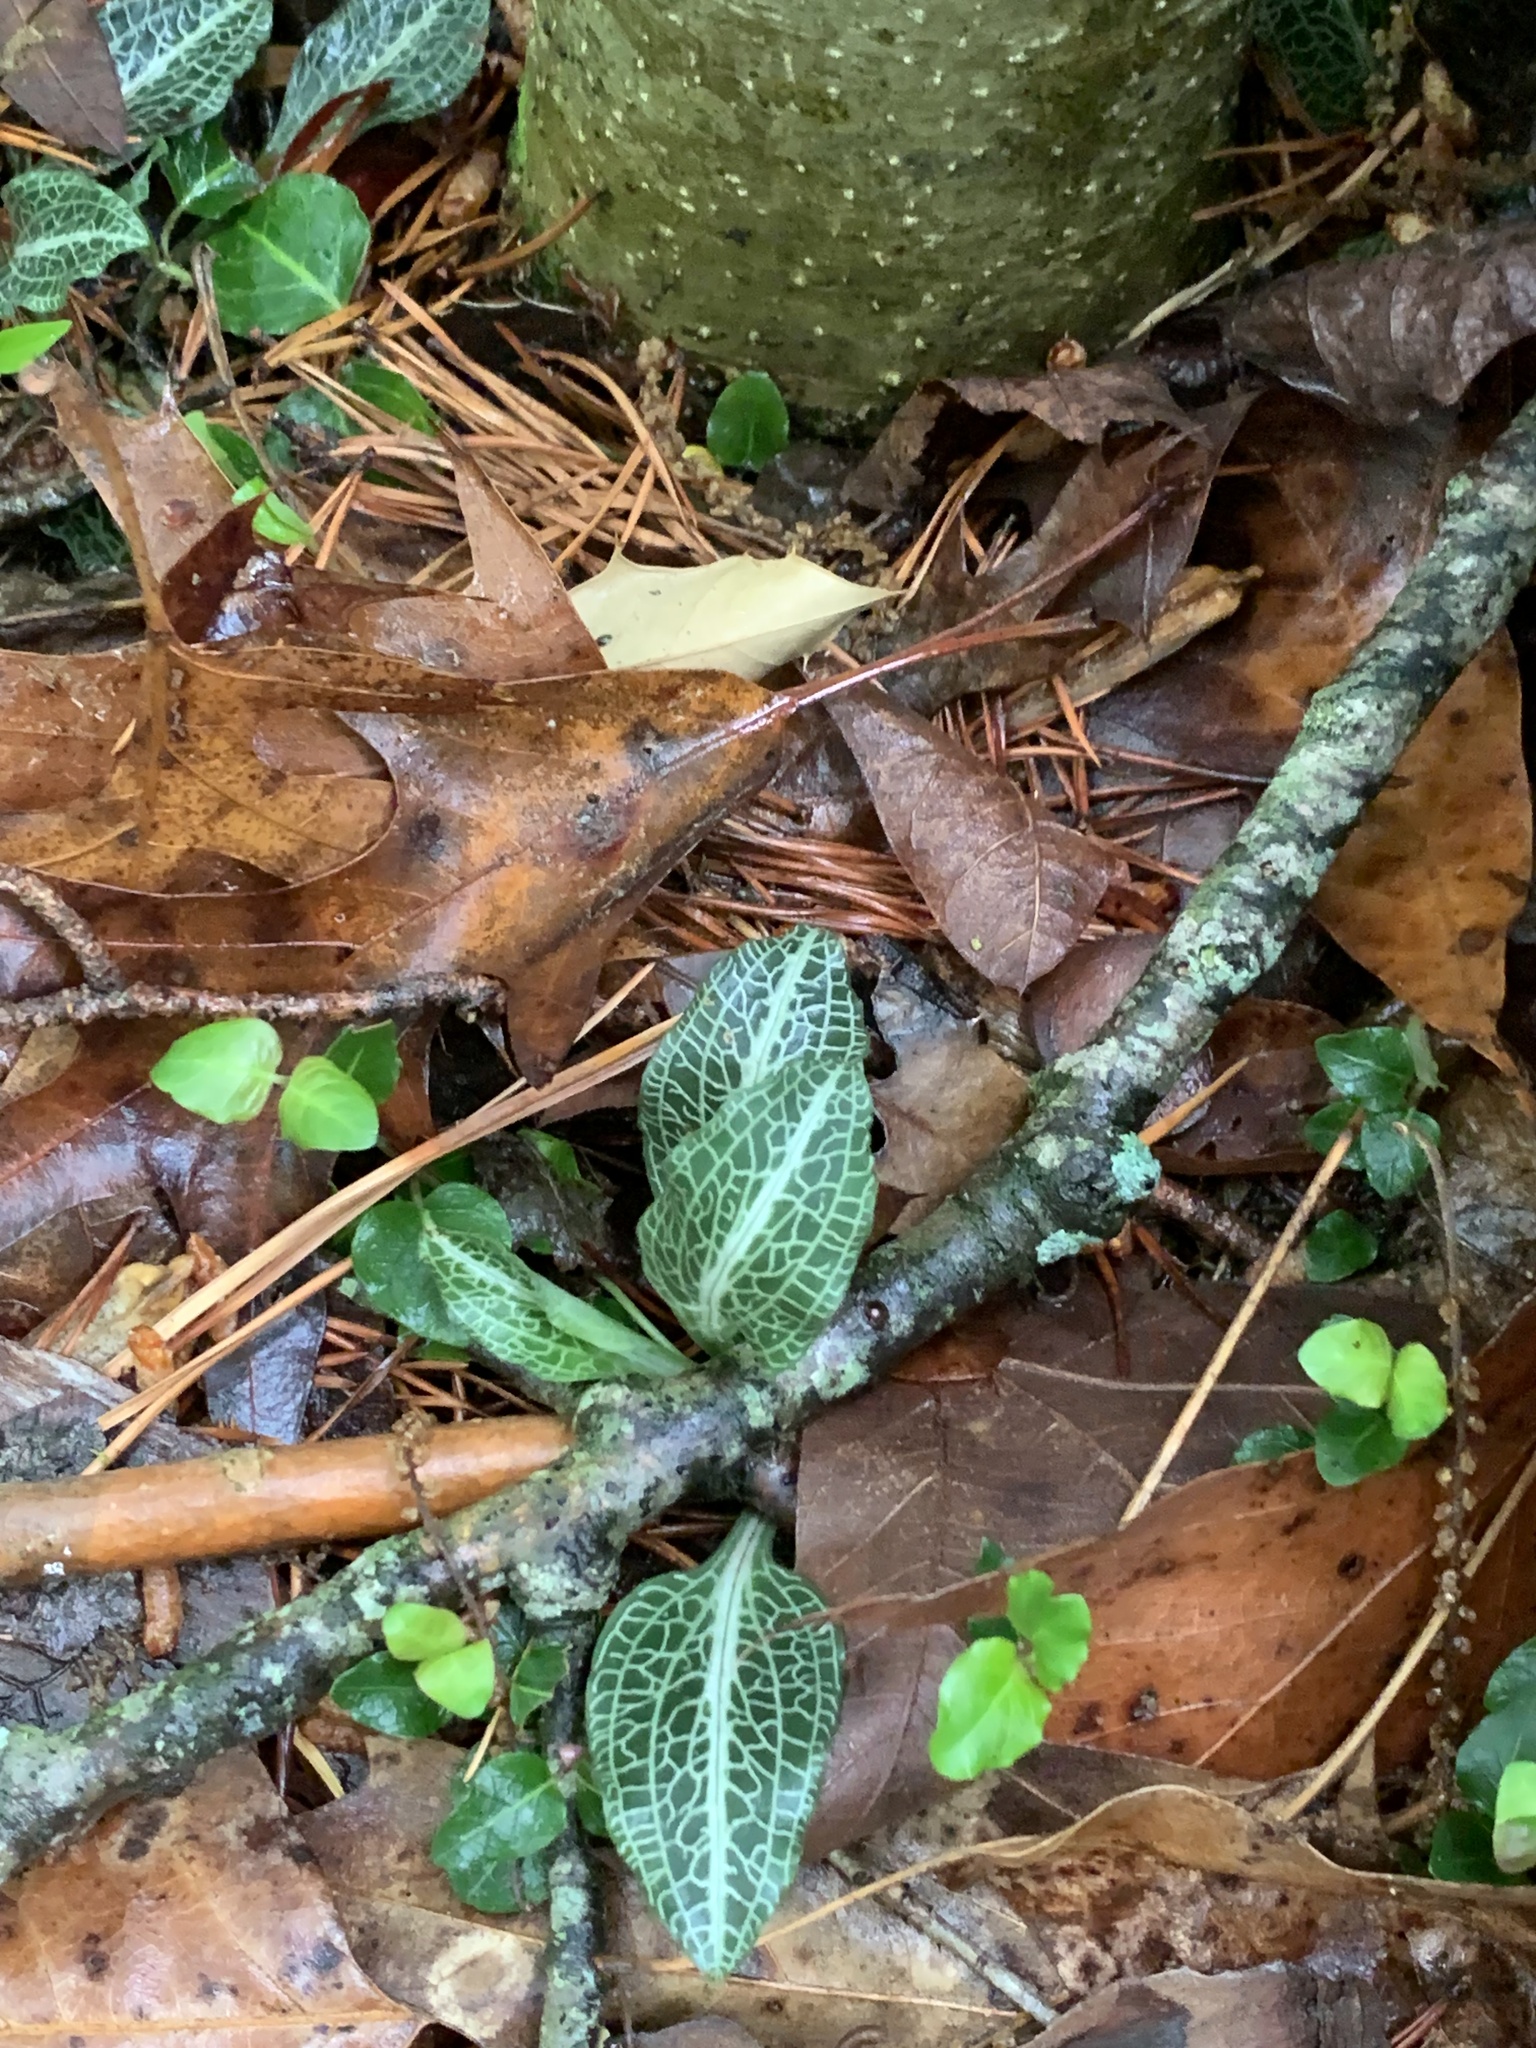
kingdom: Plantae
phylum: Tracheophyta
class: Liliopsida
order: Asparagales
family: Orchidaceae
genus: Goodyera
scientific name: Goodyera pubescens
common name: Downy rattlesnake-plantain
